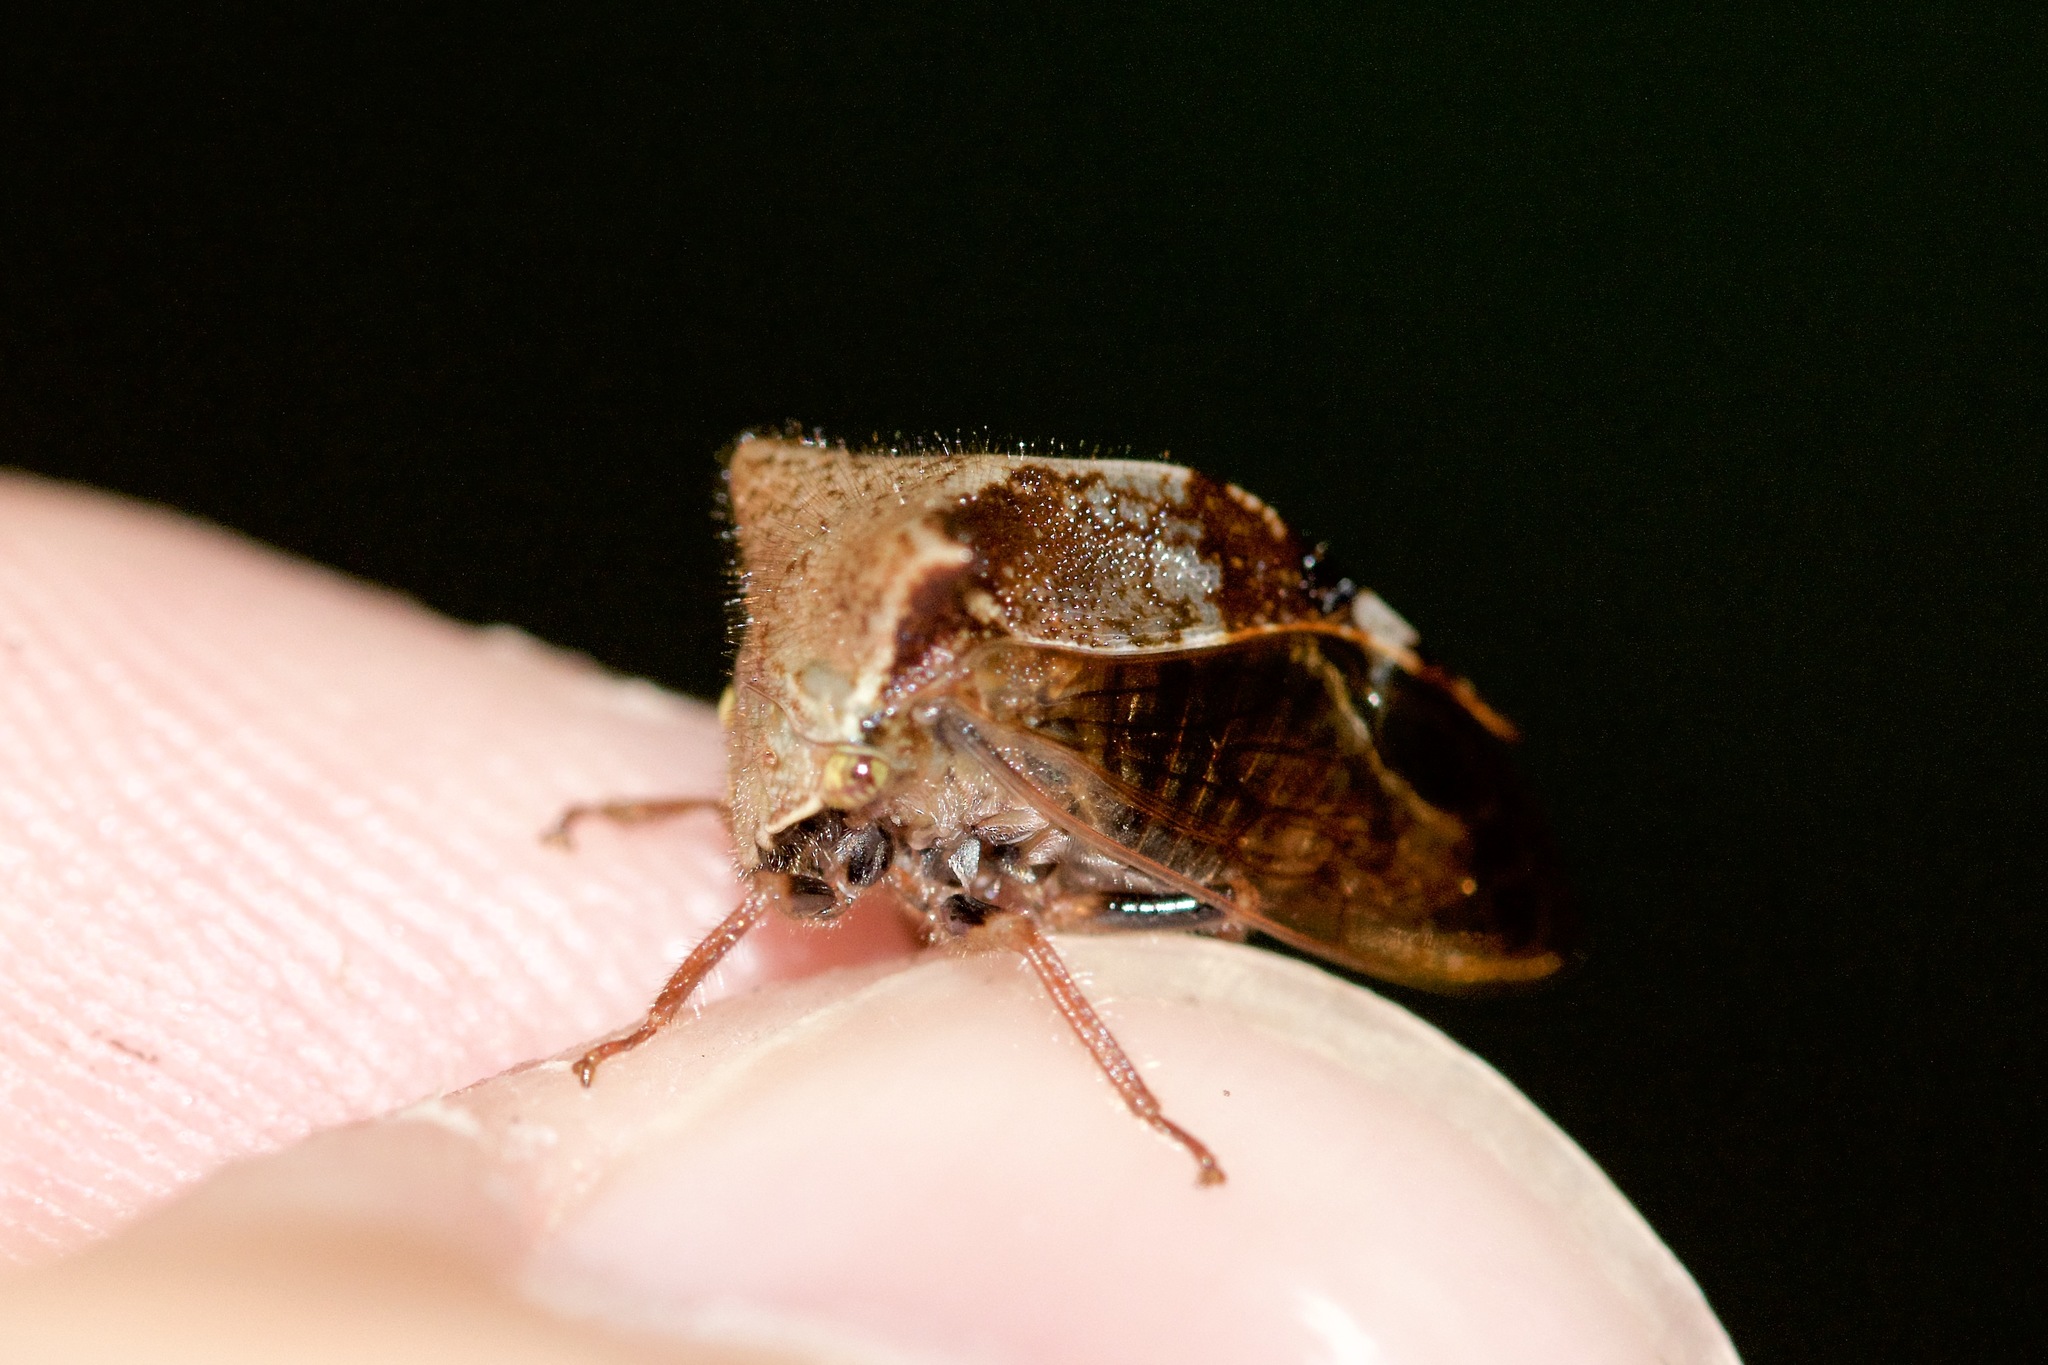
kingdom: Animalia
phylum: Arthropoda
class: Insecta
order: Hemiptera
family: Membracidae
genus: Stictocephala
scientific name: Stictocephala diceros
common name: Two-horned treehopper
